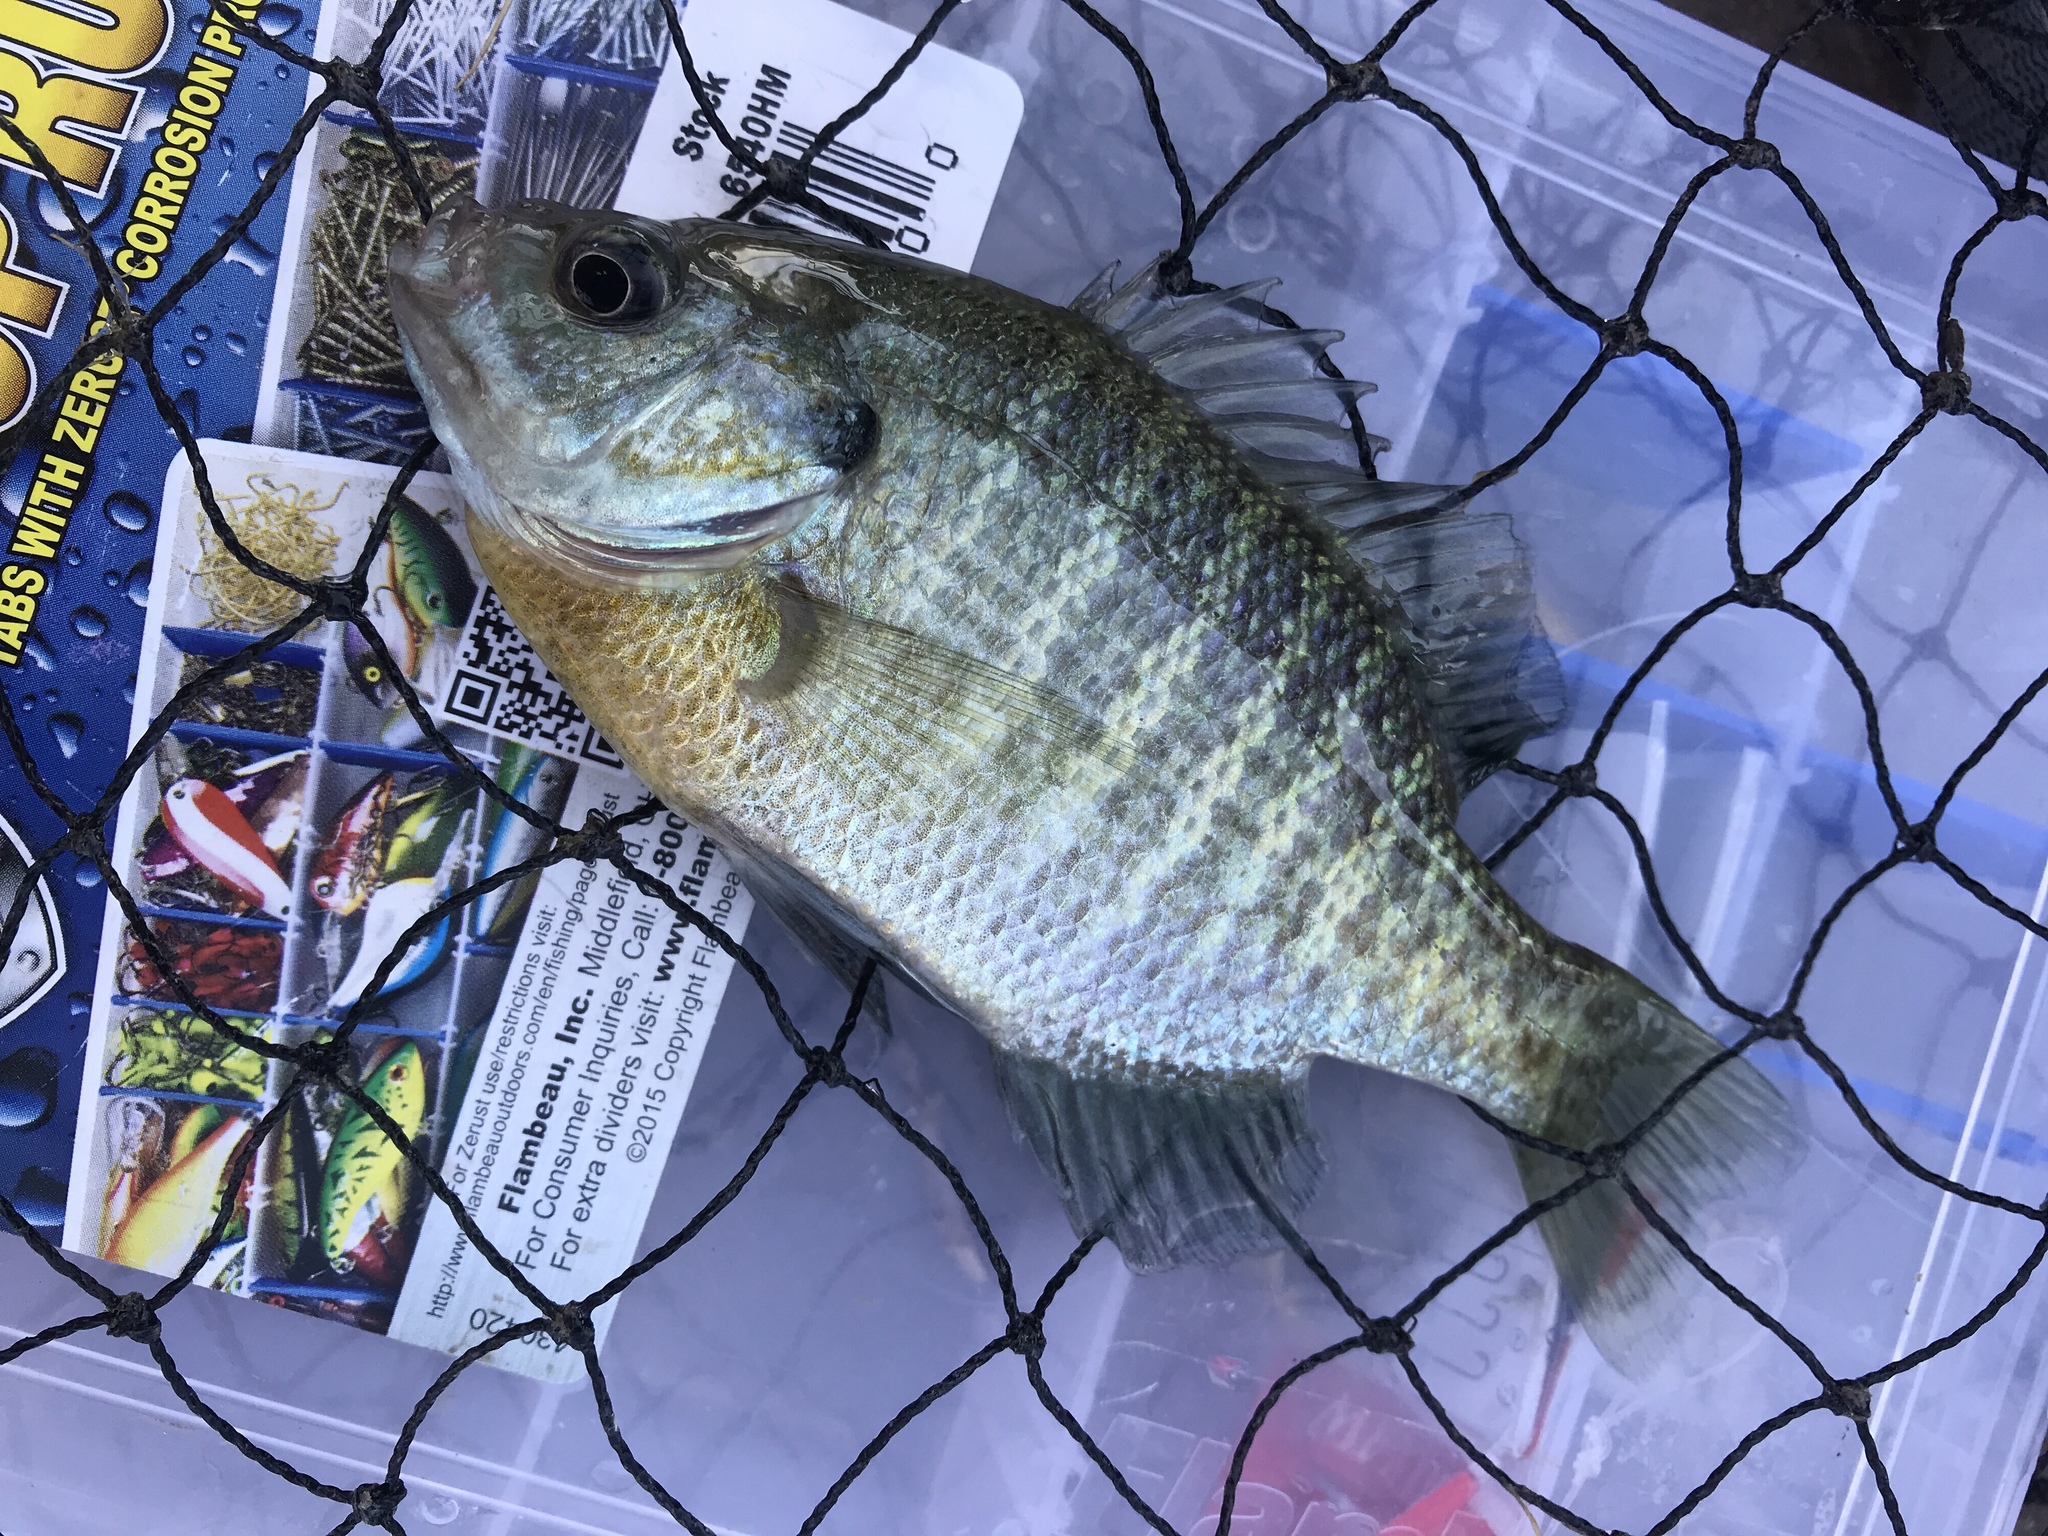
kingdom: Animalia
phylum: Chordata
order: Perciformes
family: Centrarchidae
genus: Lepomis
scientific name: Lepomis macrochirus
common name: Bluegill
